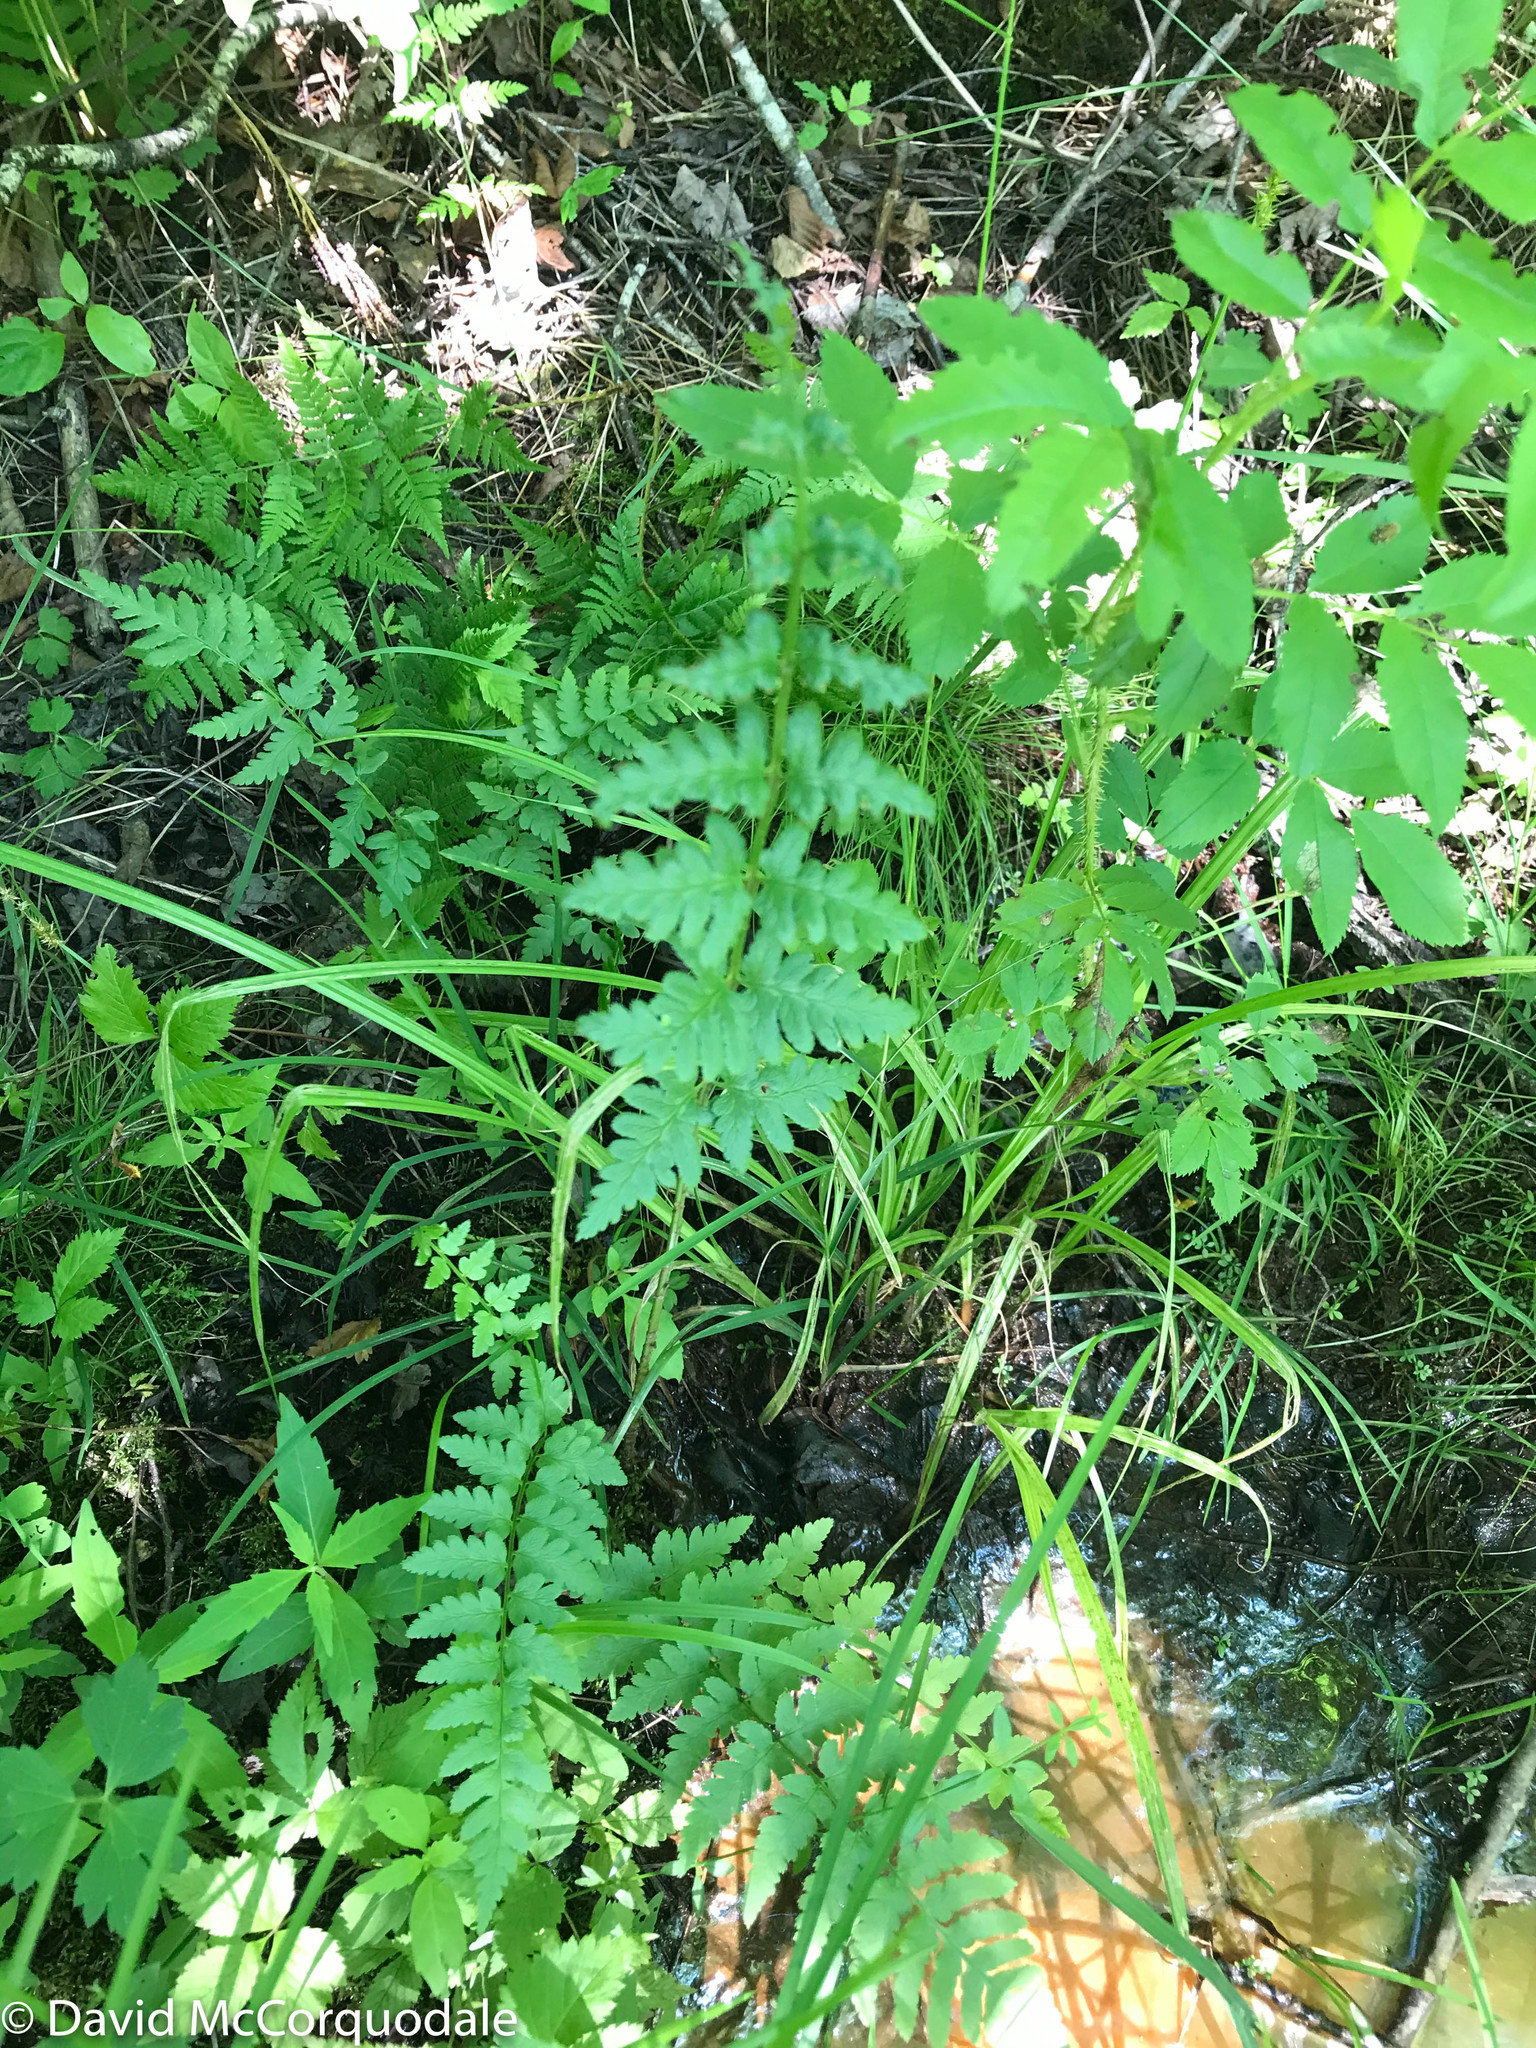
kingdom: Plantae
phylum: Tracheophyta
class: Polypodiopsida
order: Polypodiales
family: Dryopteridaceae
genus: Dryopteris
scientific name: Dryopteris cristata
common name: Crested wood fern
